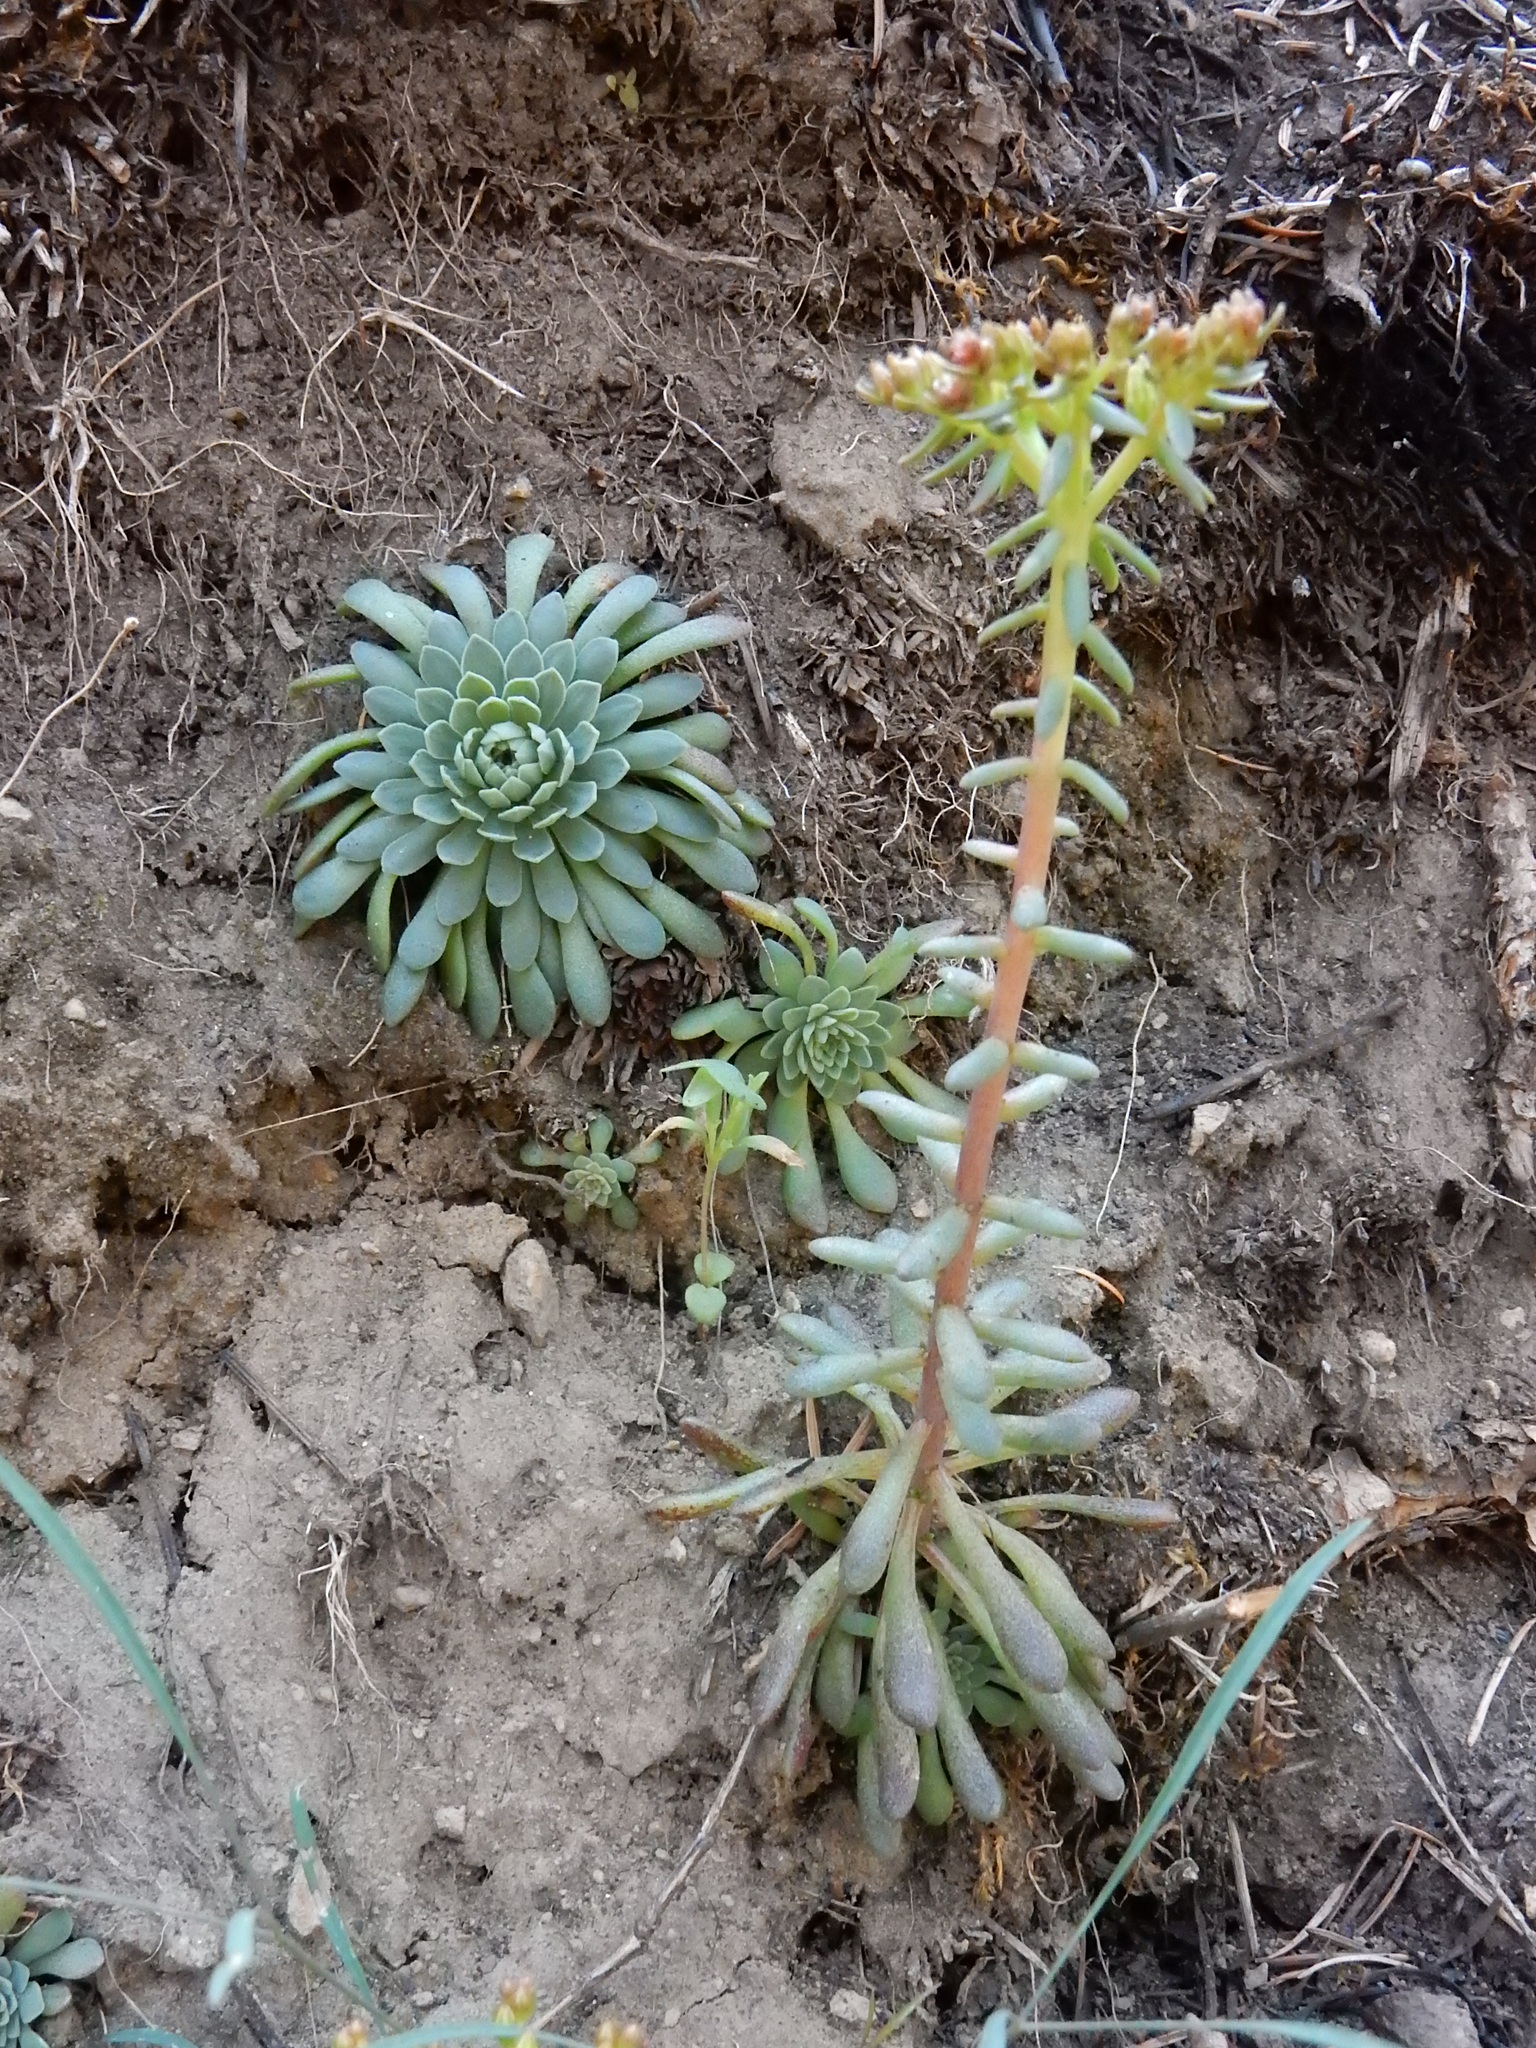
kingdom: Plantae
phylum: Tracheophyta
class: Magnoliopsida
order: Saxifragales
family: Crassulaceae
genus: Sedum
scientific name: Sedum valens
